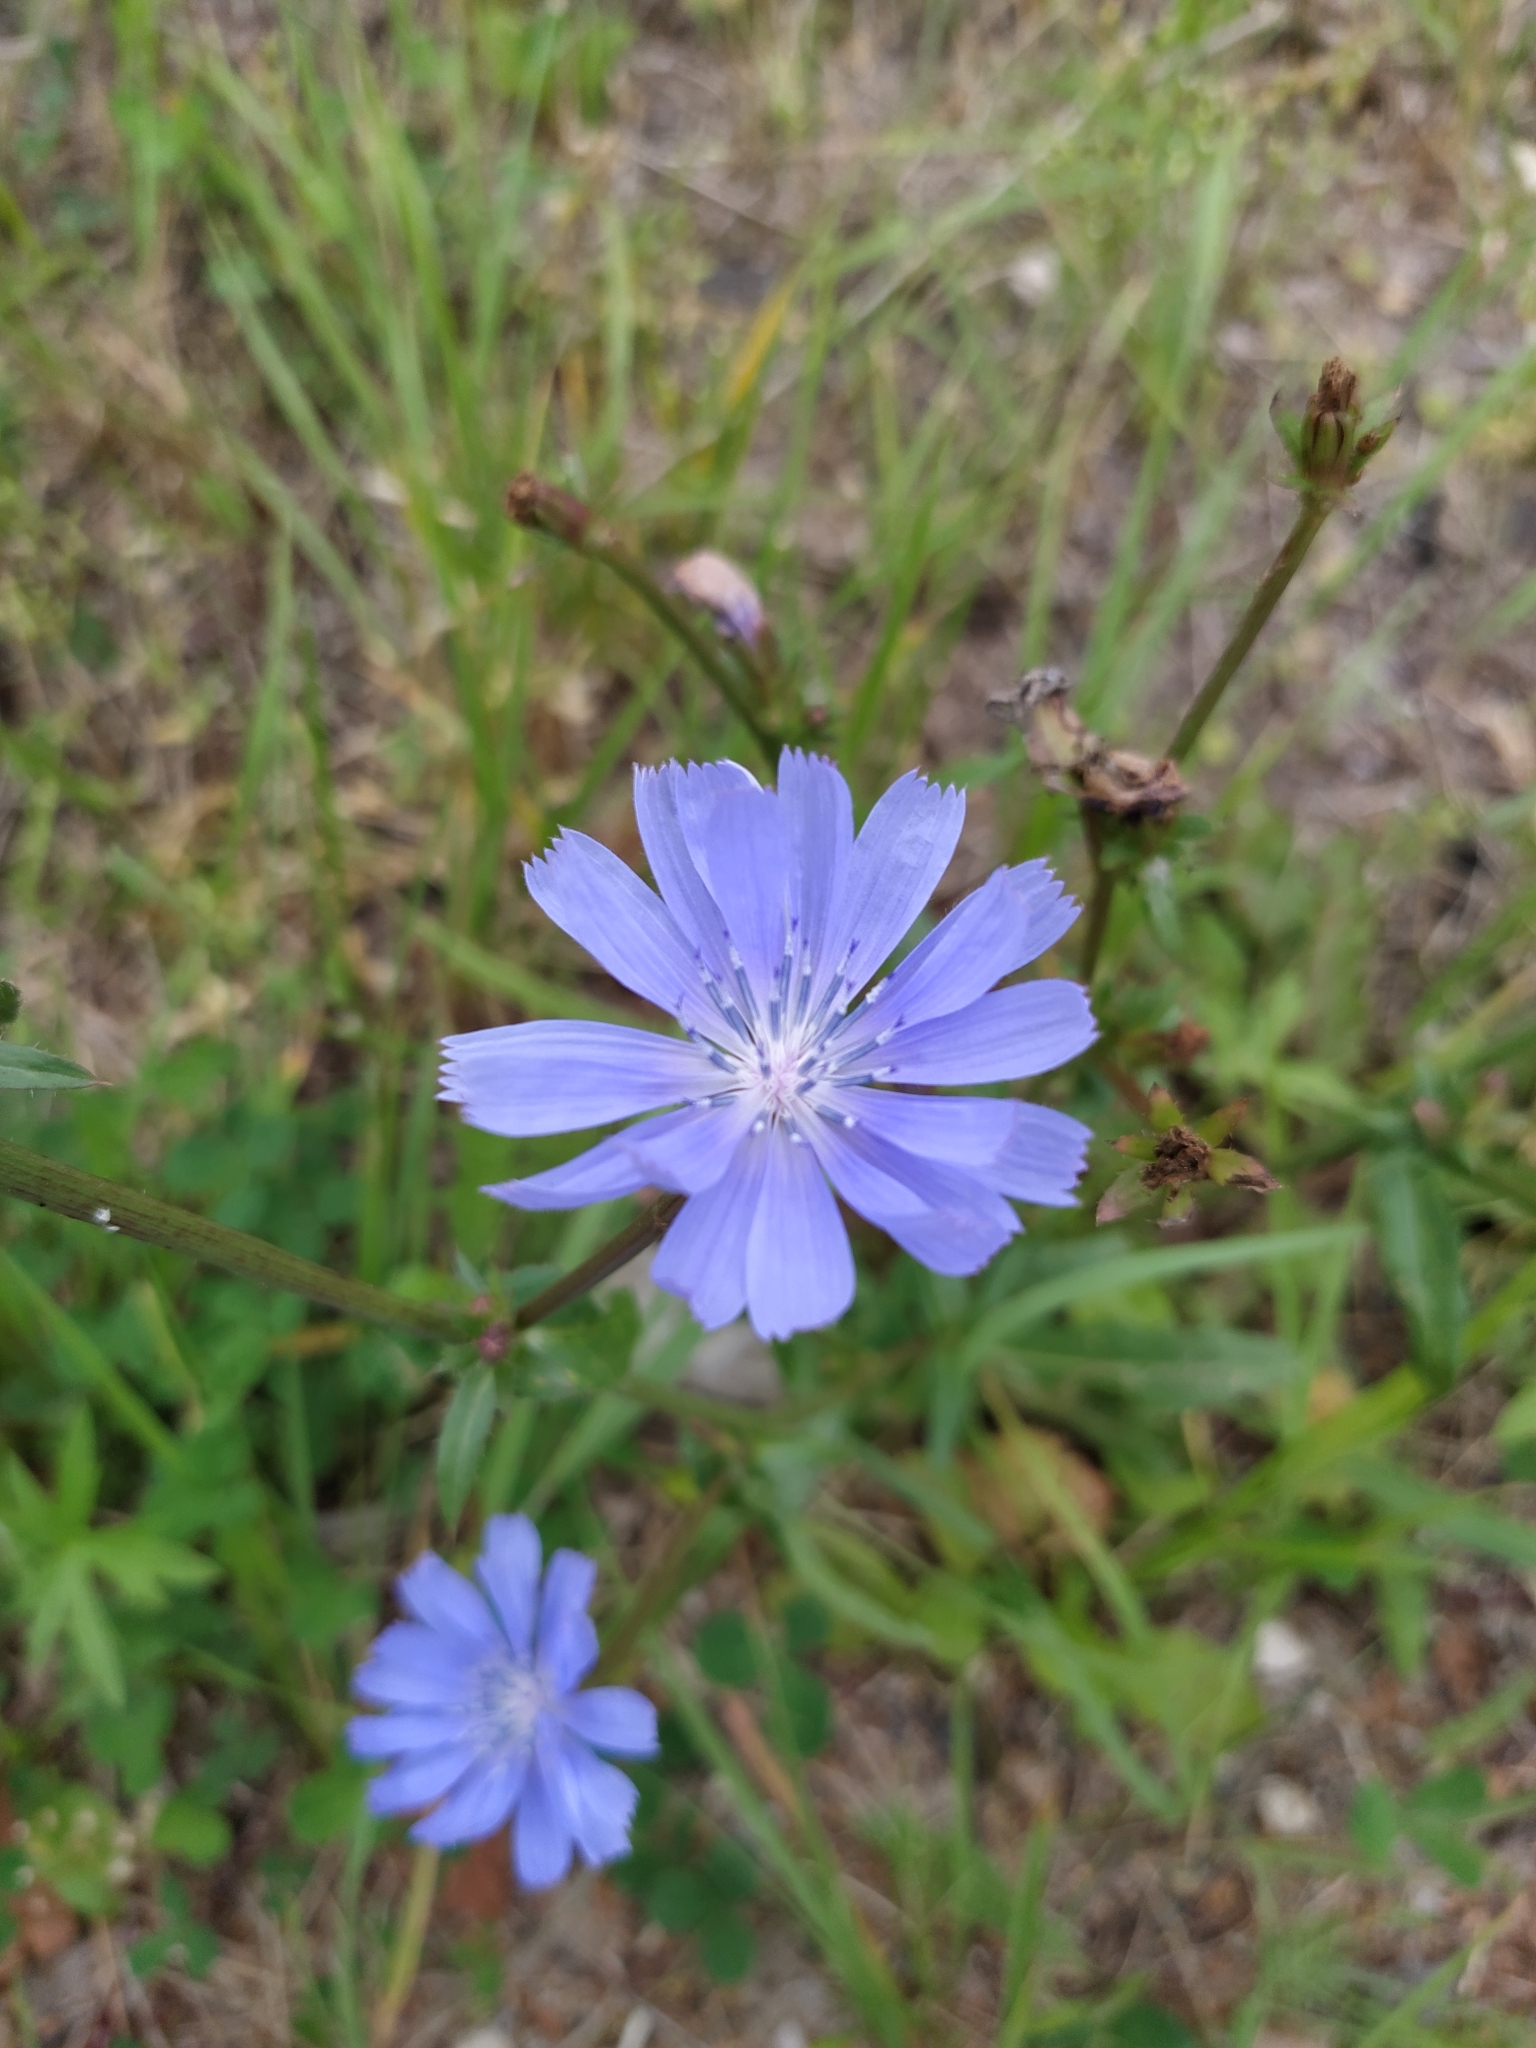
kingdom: Plantae
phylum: Tracheophyta
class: Magnoliopsida
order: Asterales
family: Asteraceae
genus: Cichorium
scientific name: Cichorium intybus
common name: Chicory
